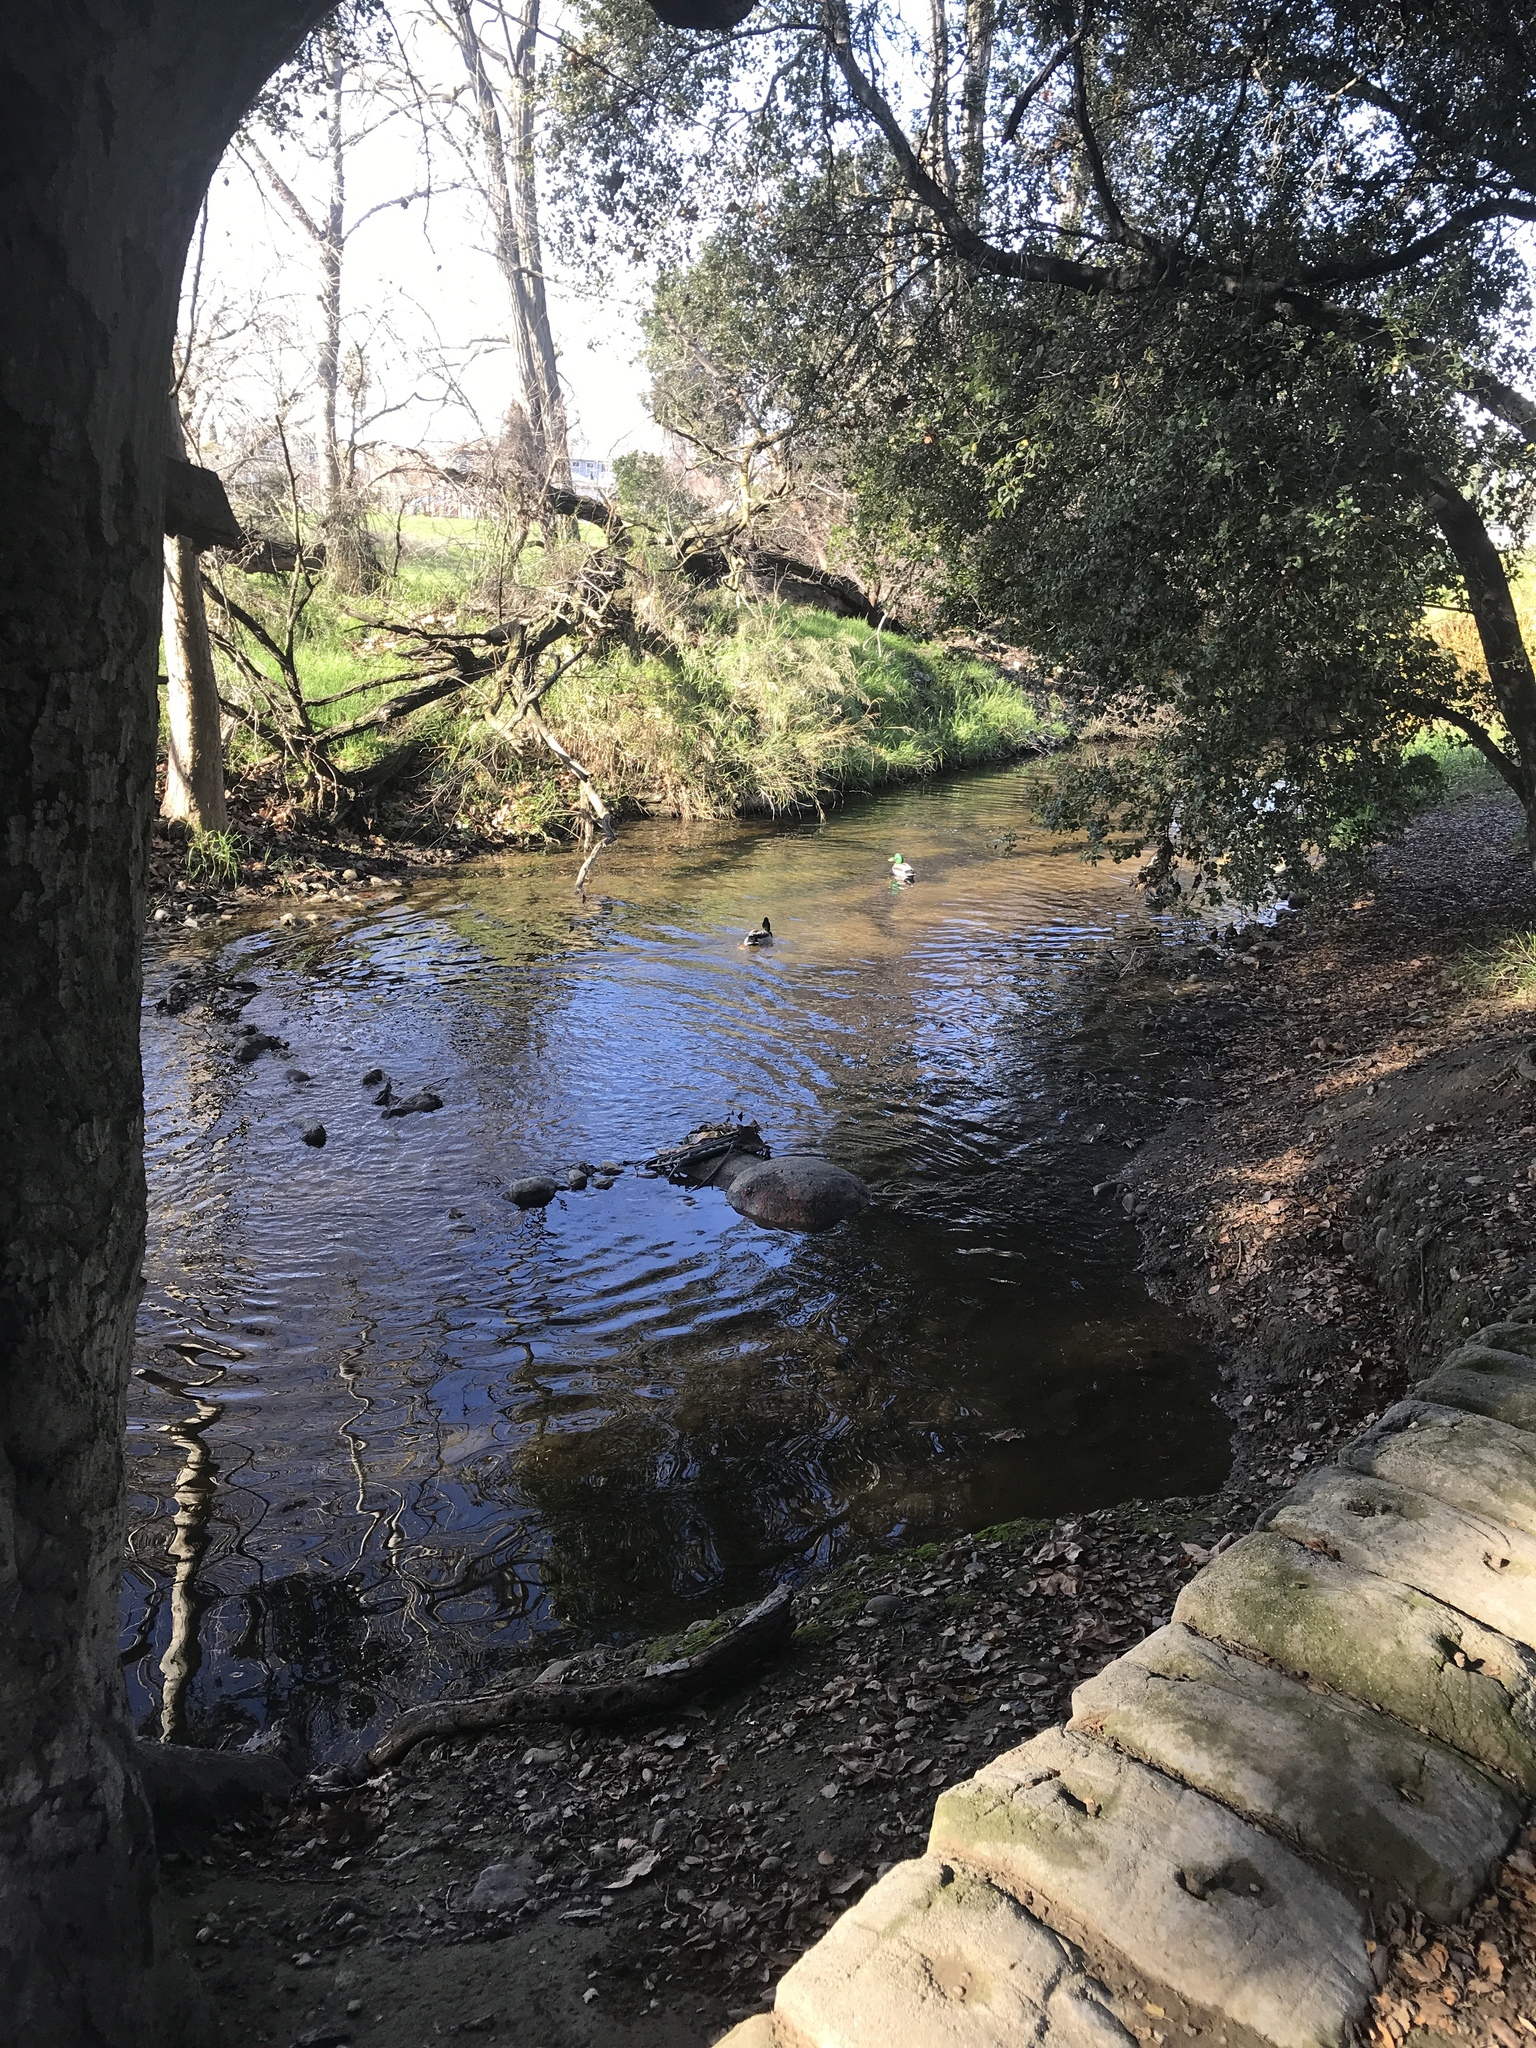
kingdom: Animalia
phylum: Chordata
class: Aves
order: Anseriformes
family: Anatidae
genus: Anas
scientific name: Anas platyrhynchos
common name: Mallard
